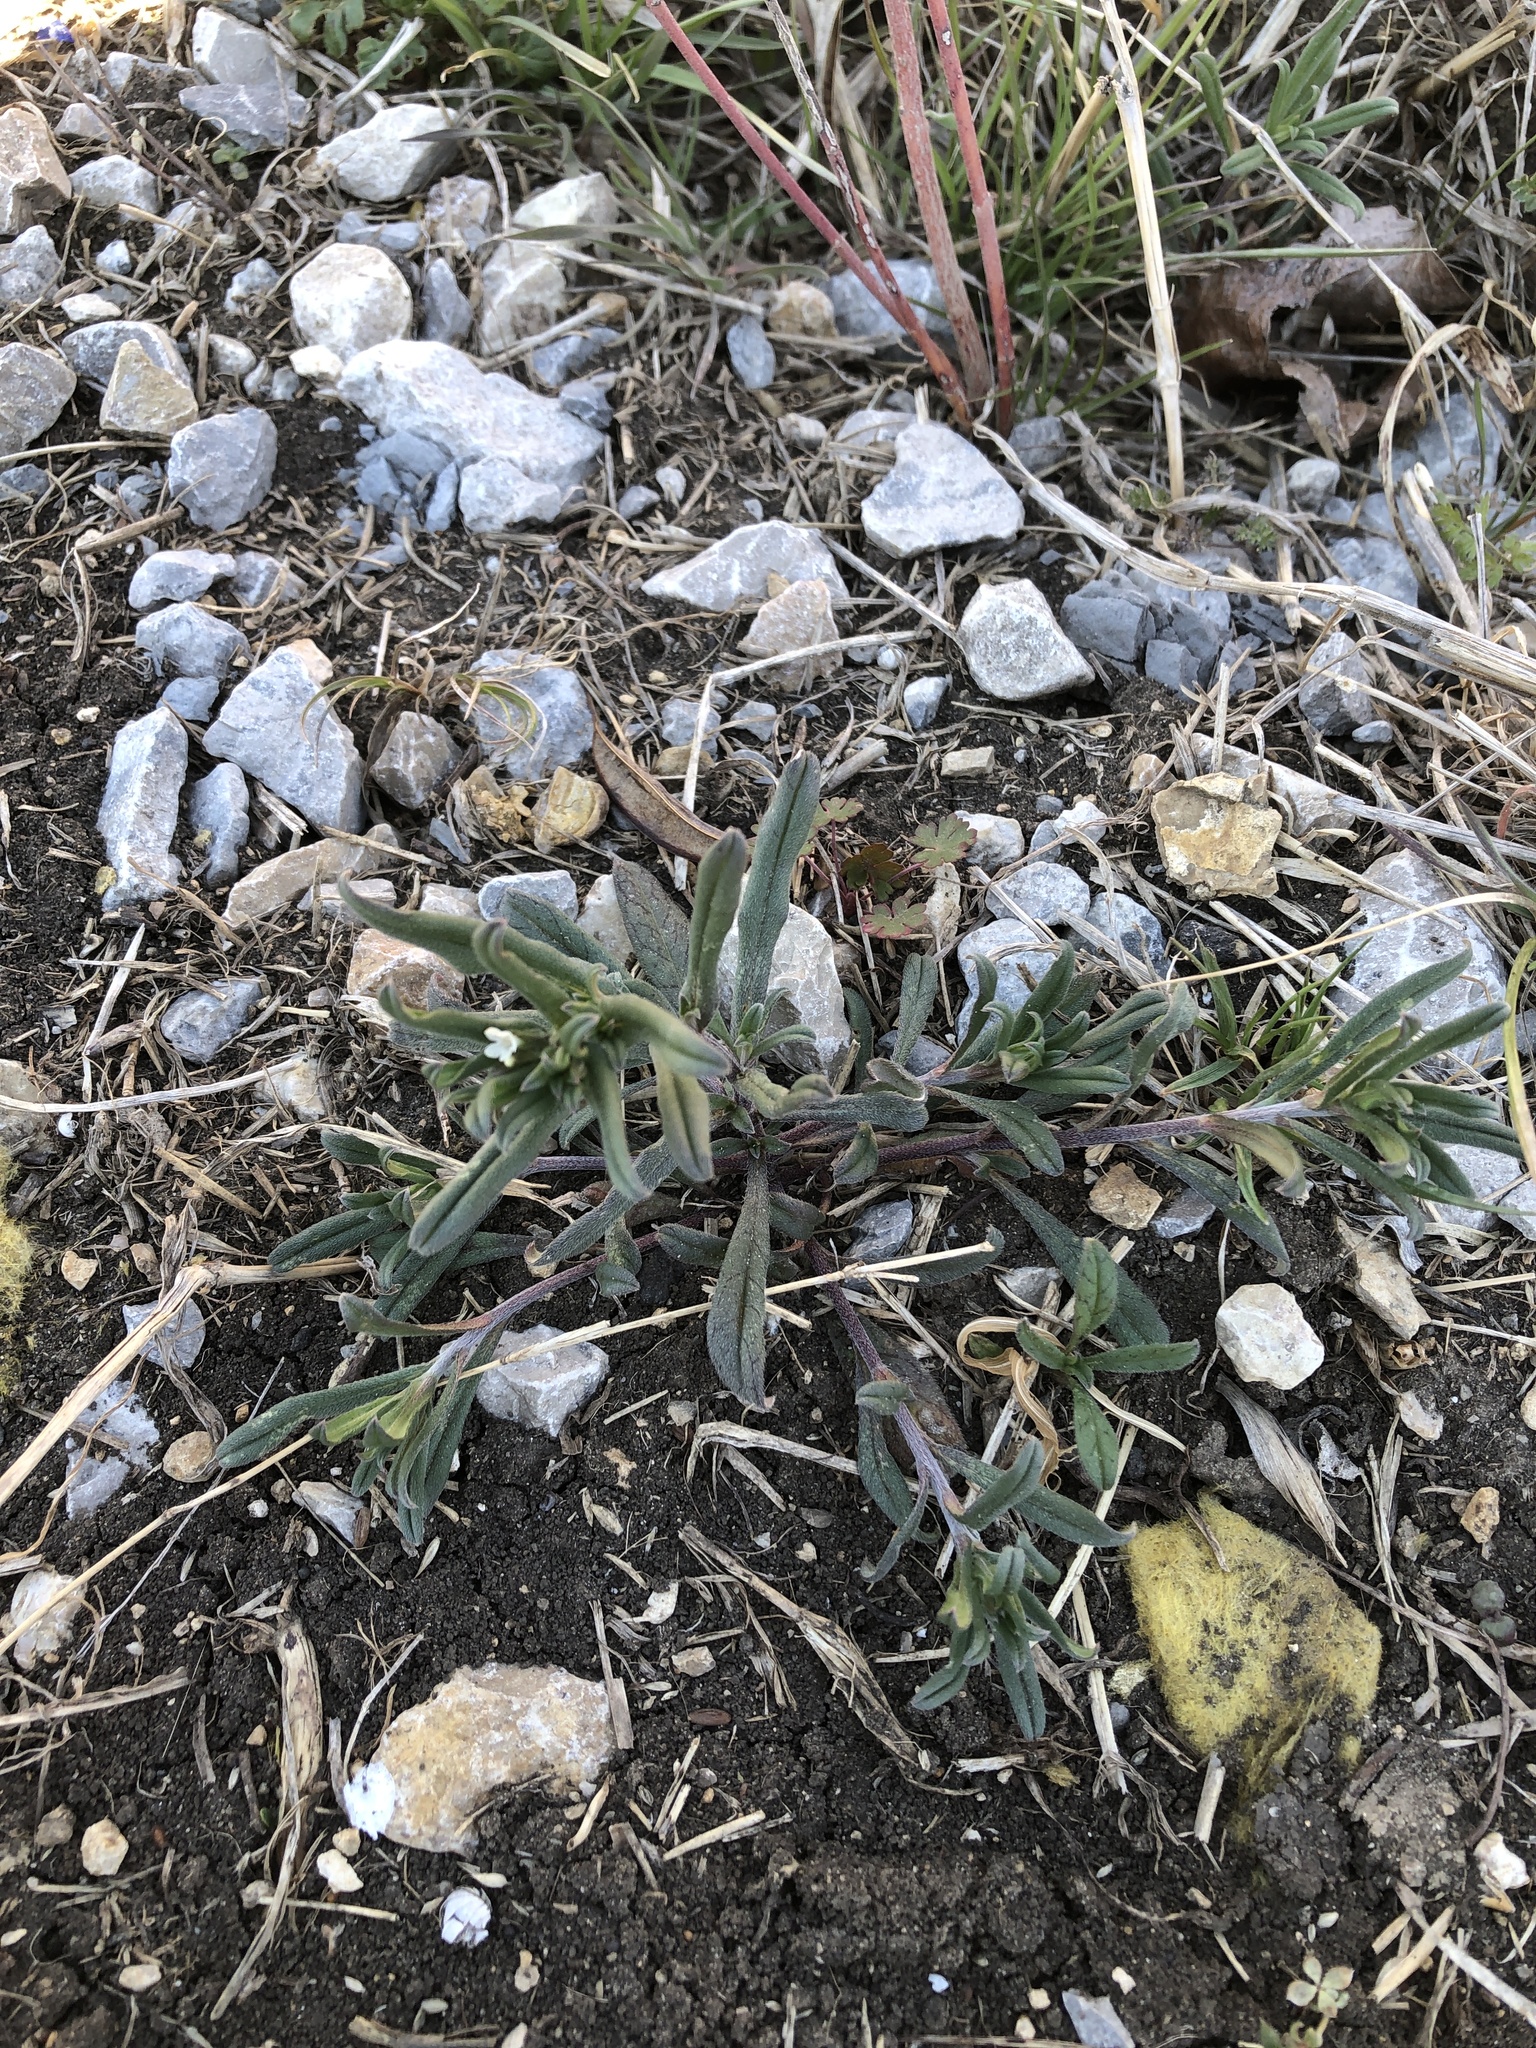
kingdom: Plantae
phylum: Tracheophyta
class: Magnoliopsida
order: Boraginales
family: Boraginaceae
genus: Buglossoides
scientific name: Buglossoides arvensis
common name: Corn gromwell
